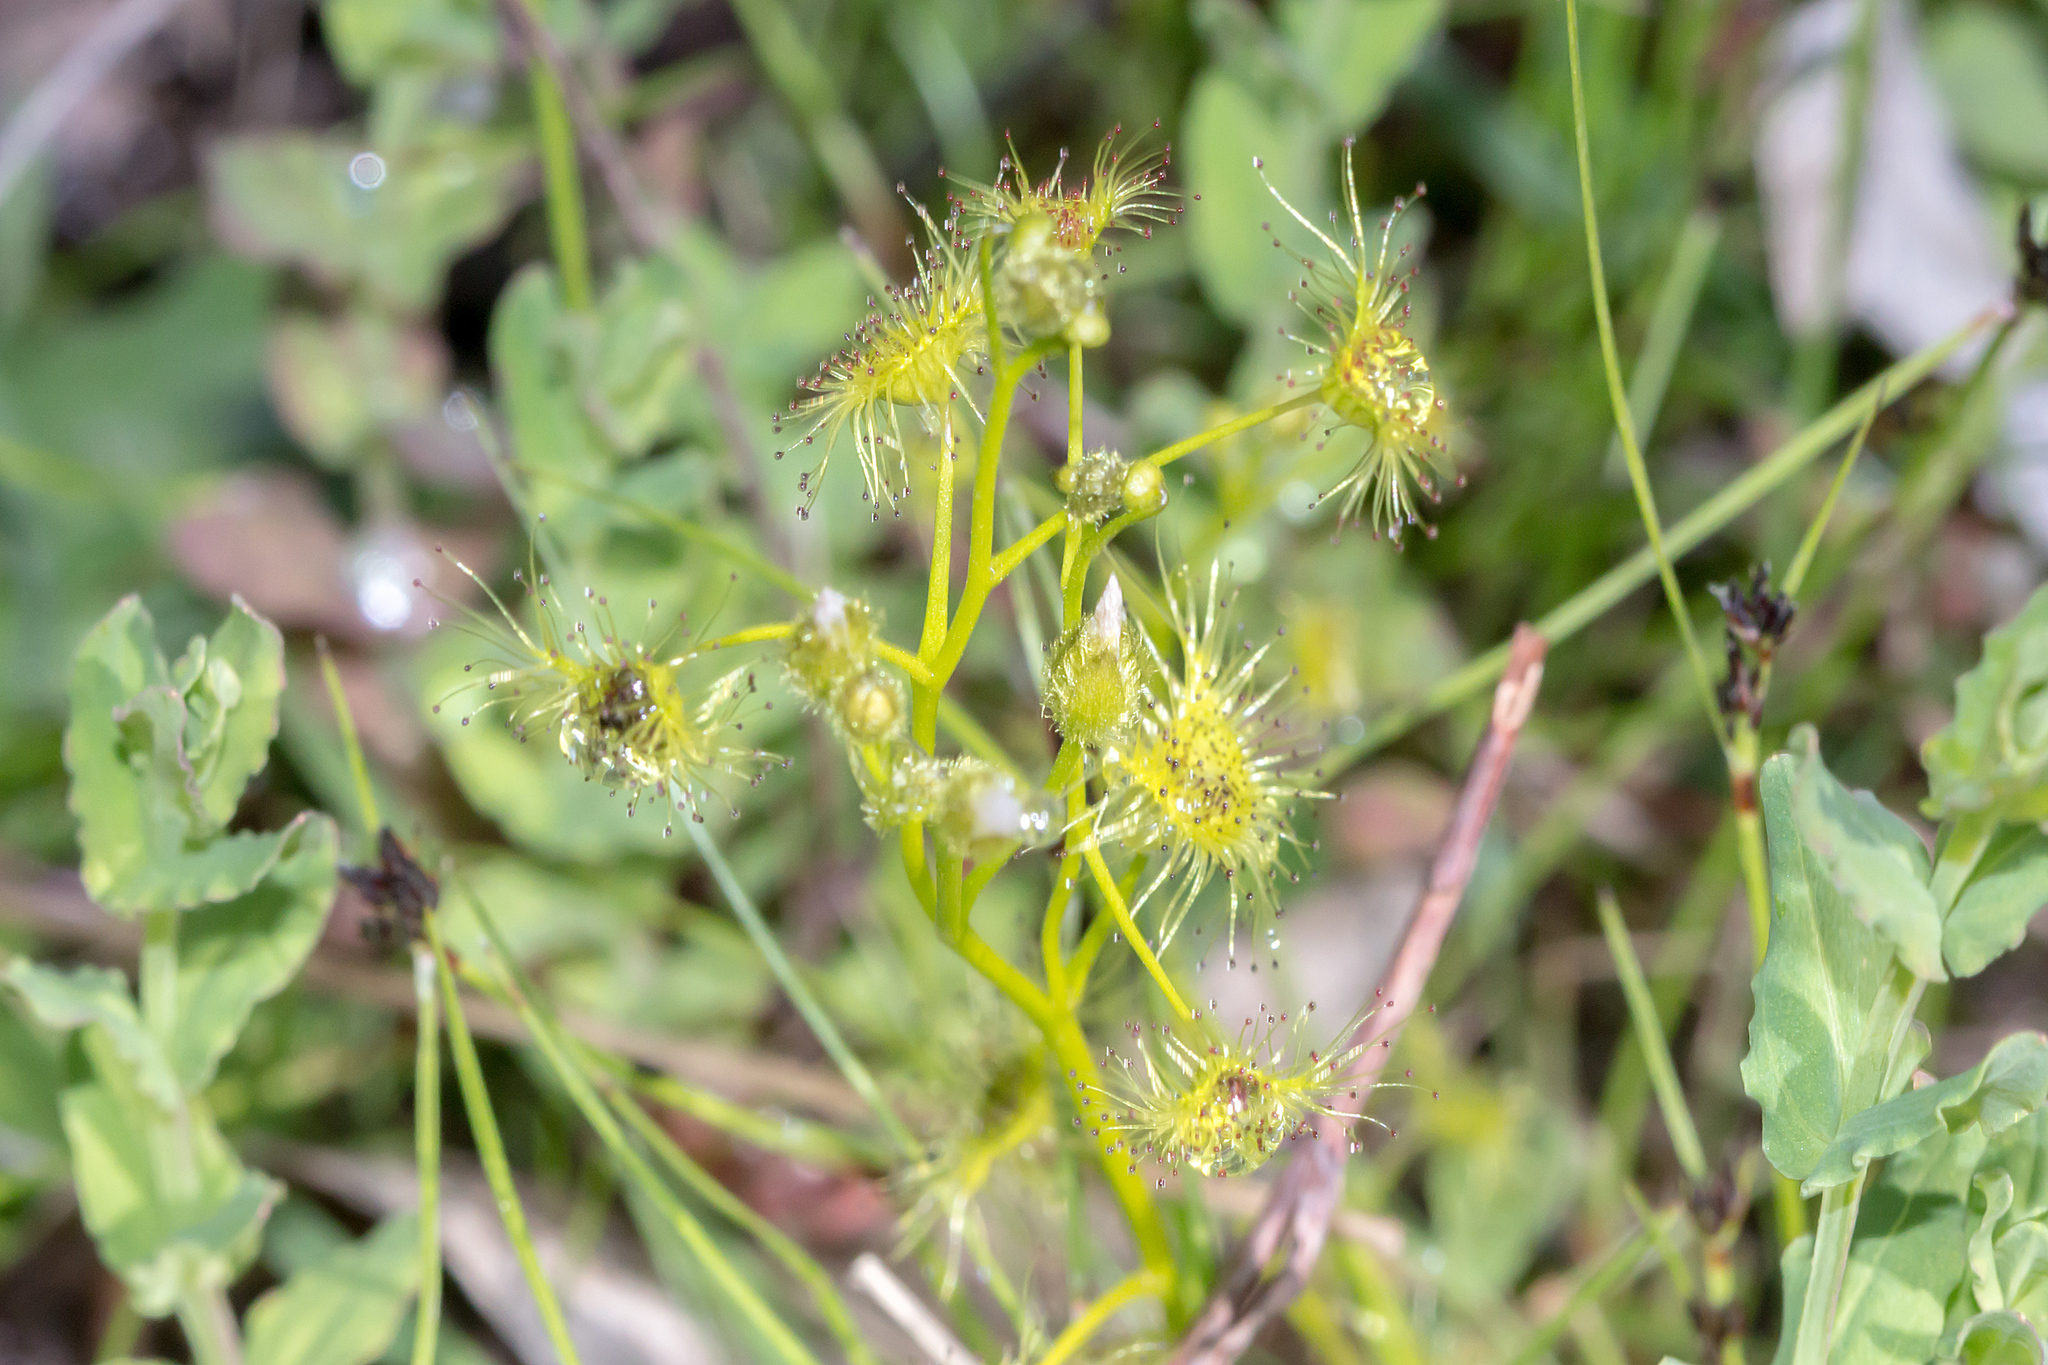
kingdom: Plantae
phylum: Tracheophyta
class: Magnoliopsida
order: Caryophyllales
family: Droseraceae
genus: Drosera
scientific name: Drosera hookeri
